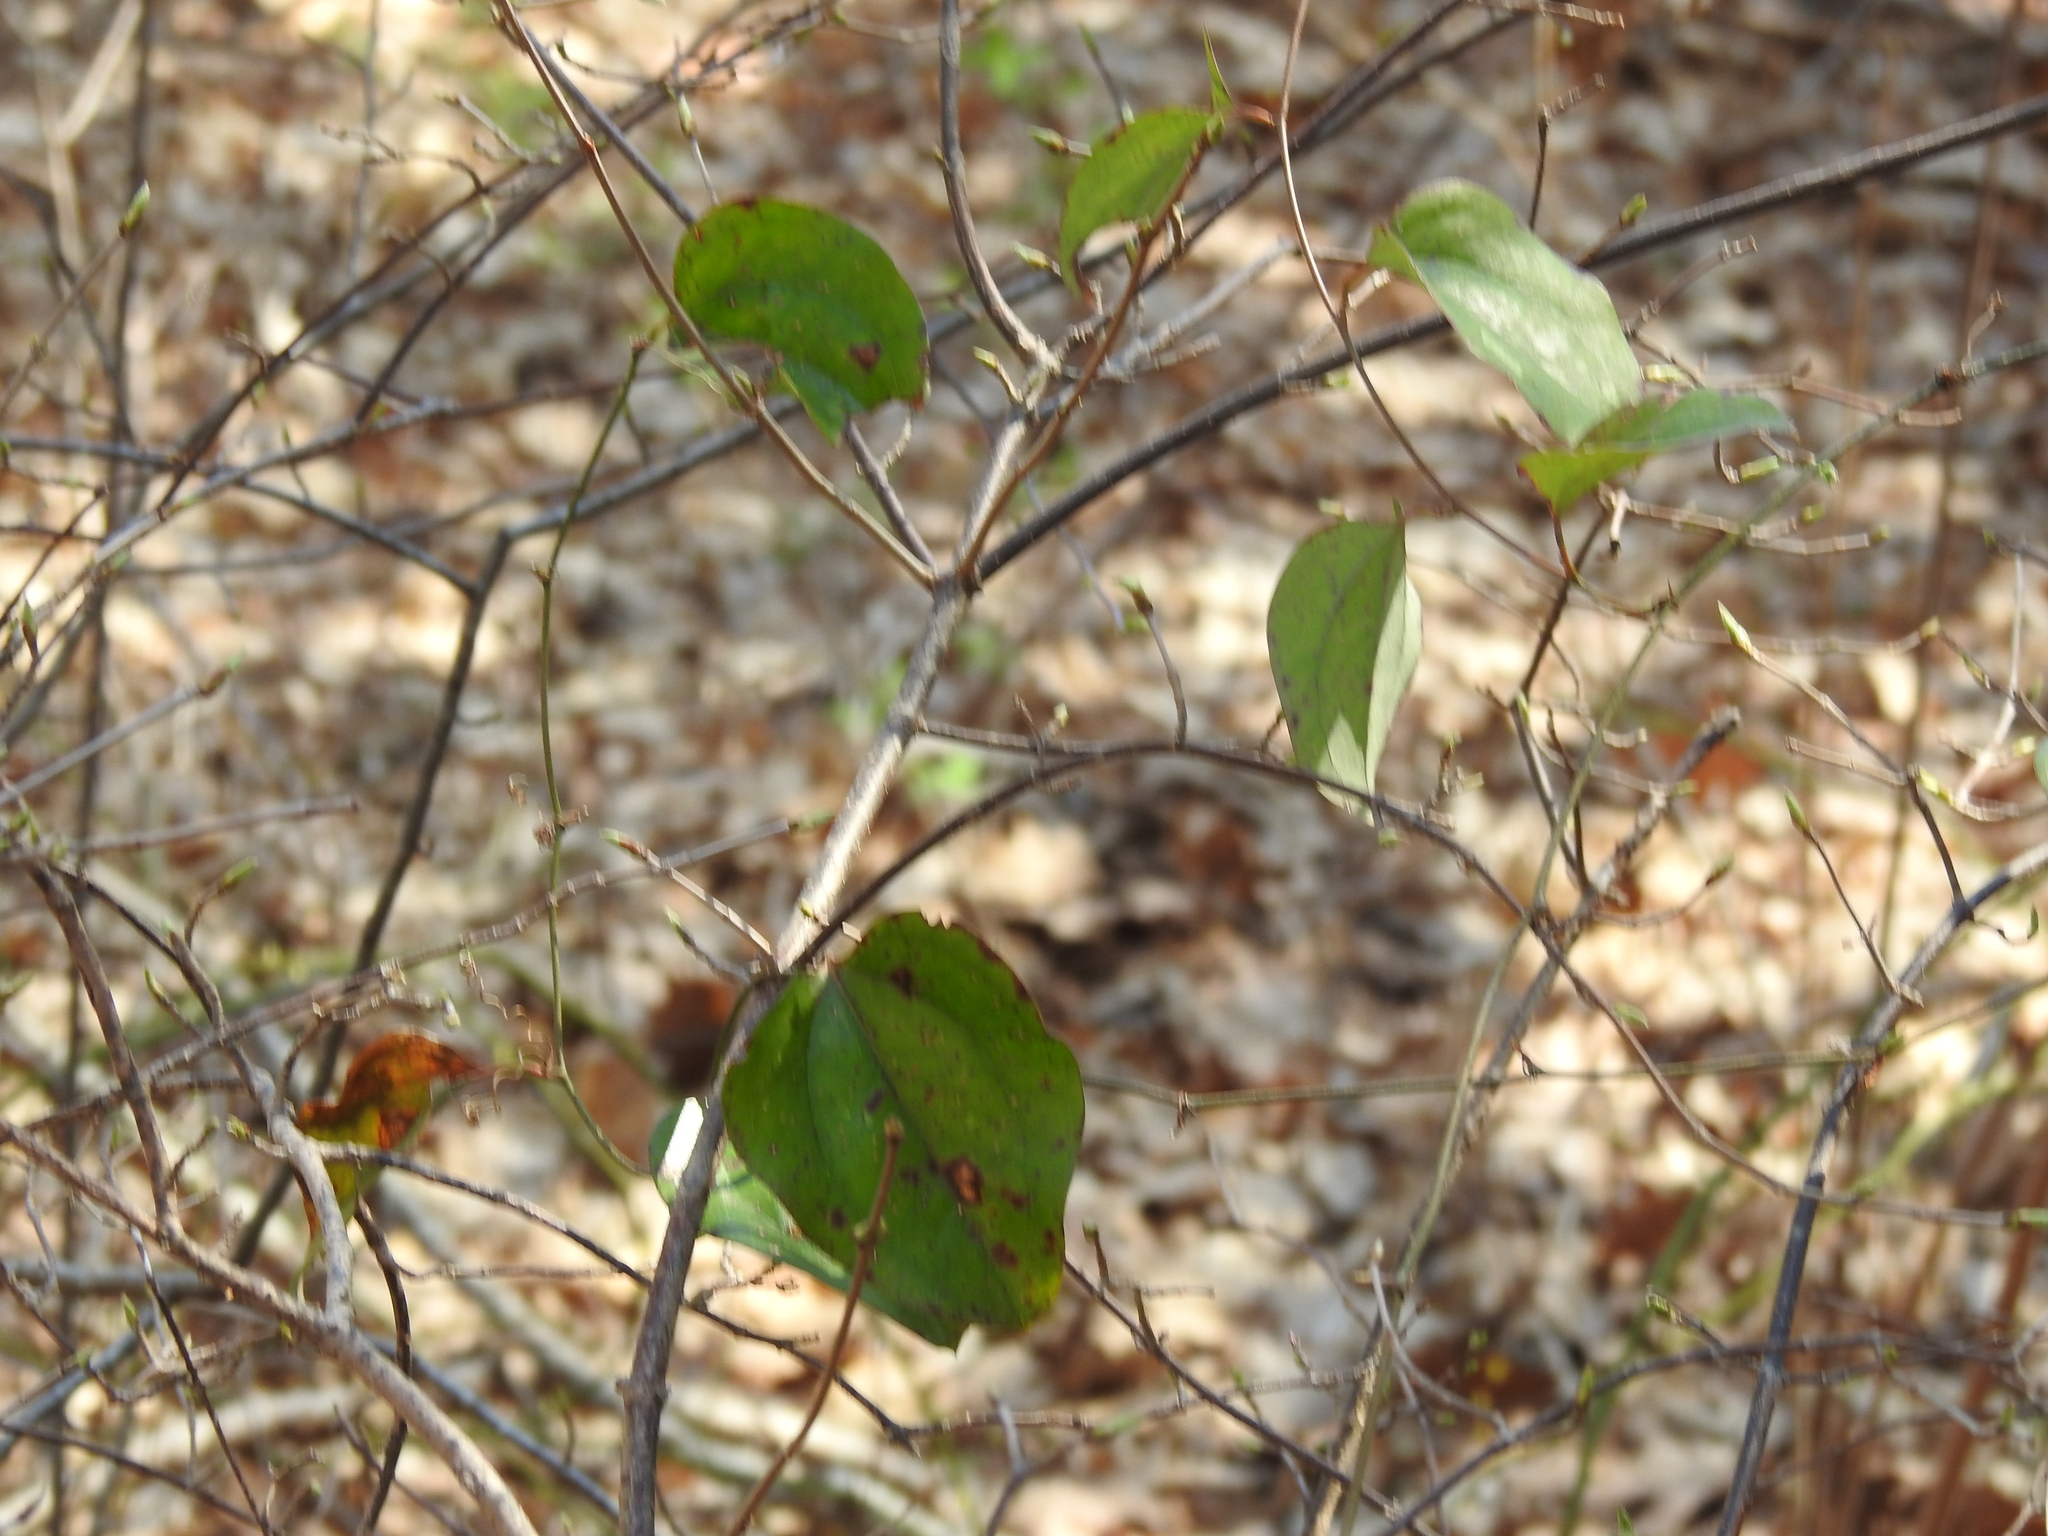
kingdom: Plantae
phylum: Tracheophyta
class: Liliopsida
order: Liliales
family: Smilacaceae
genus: Smilax
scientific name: Smilax glauca
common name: Cat greenbrier
